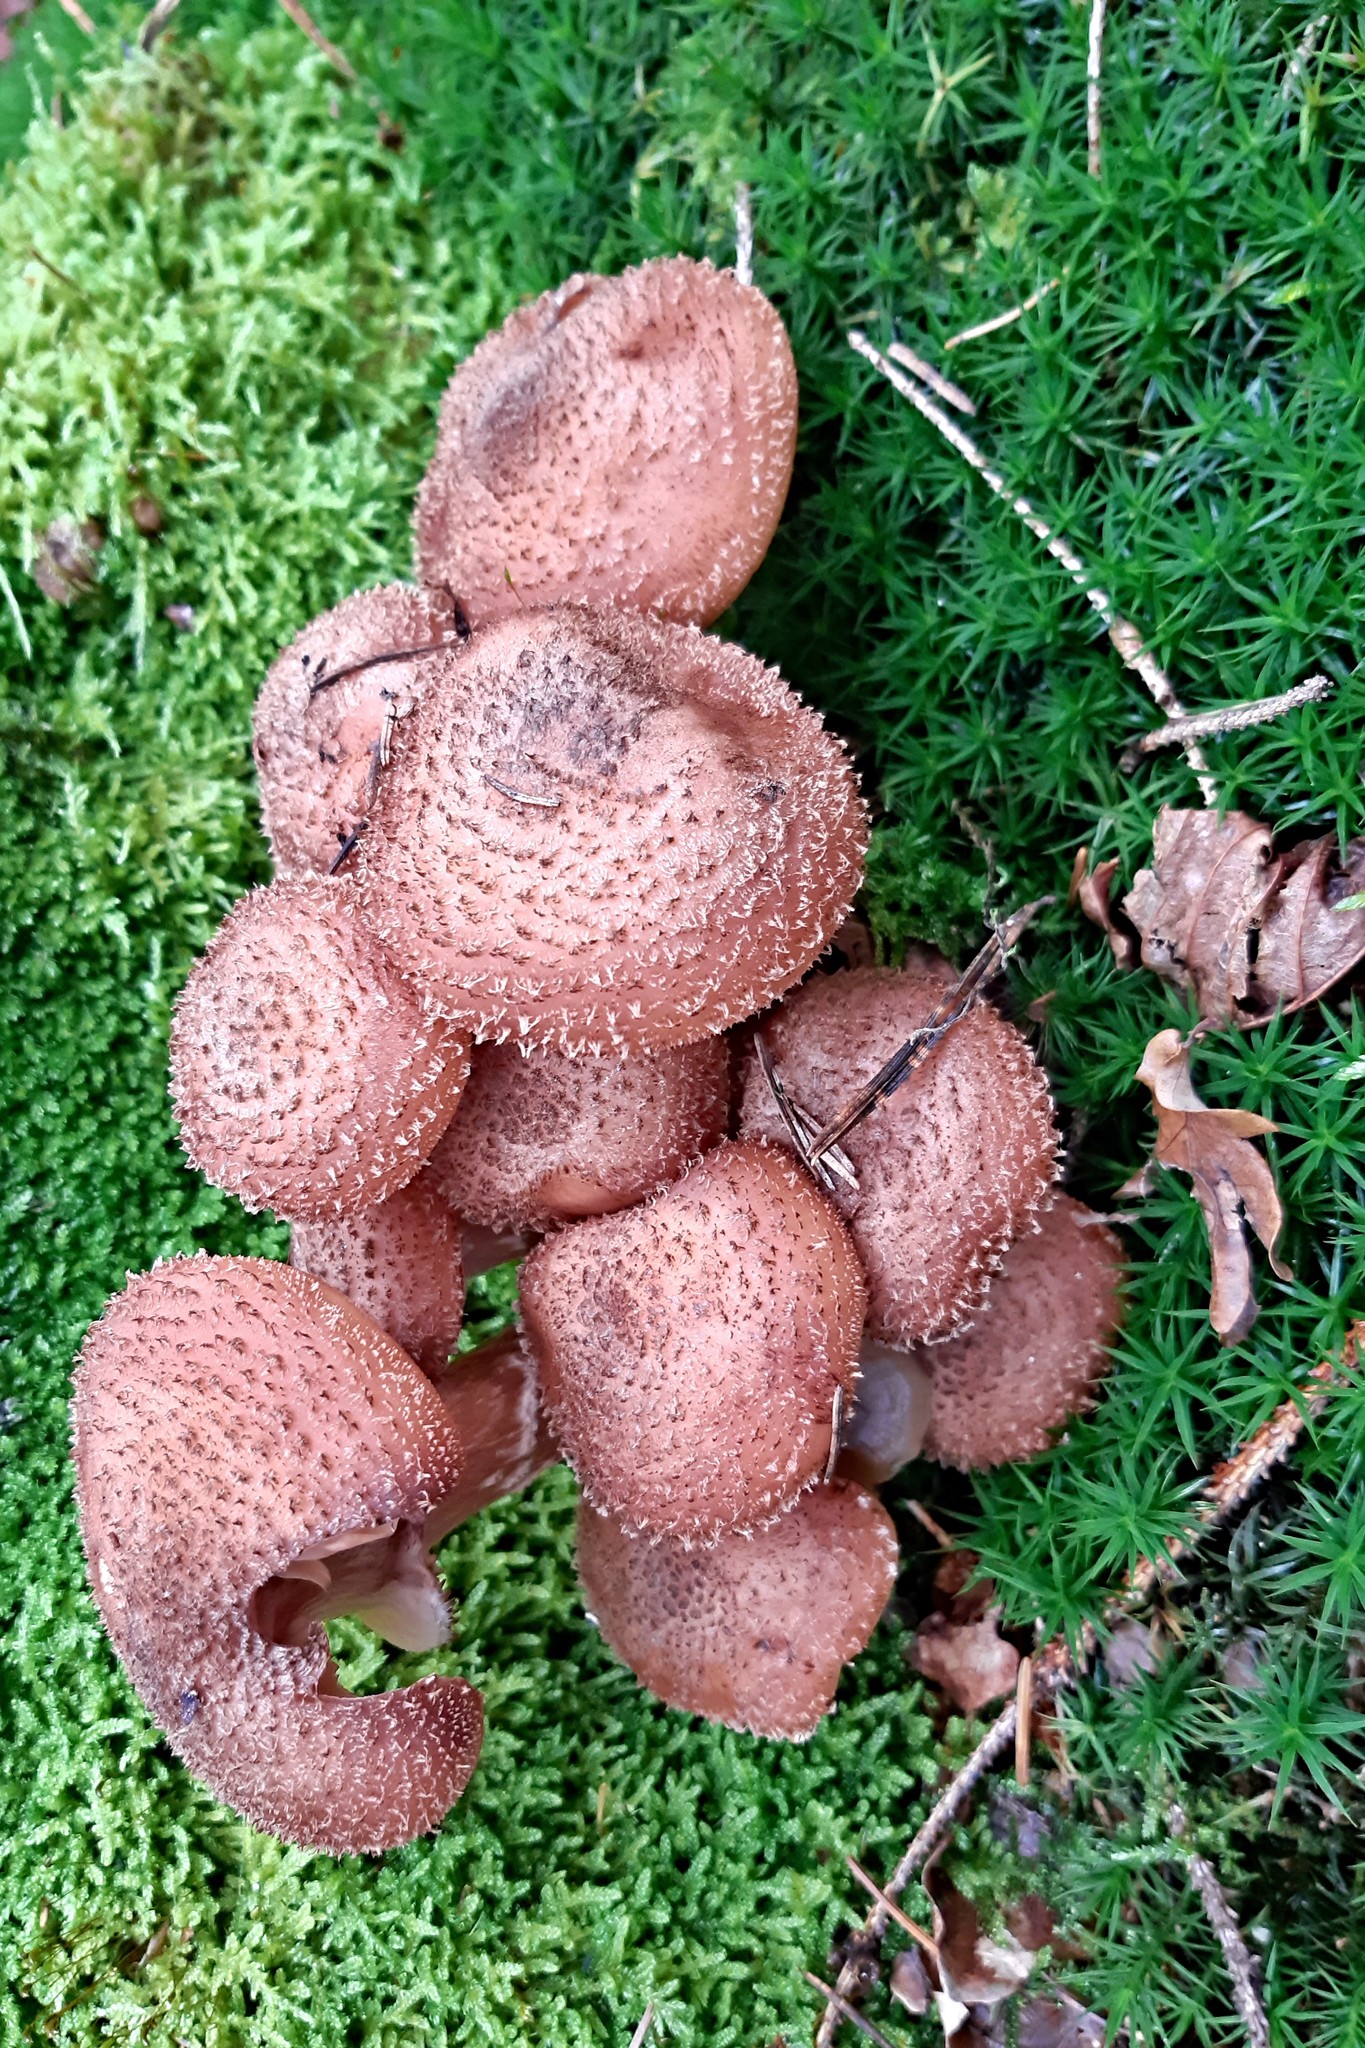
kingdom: Fungi
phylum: Basidiomycota
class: Agaricomycetes
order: Agaricales
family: Physalacriaceae
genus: Armillaria
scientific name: Armillaria ostoyae
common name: Dark honey fungus
